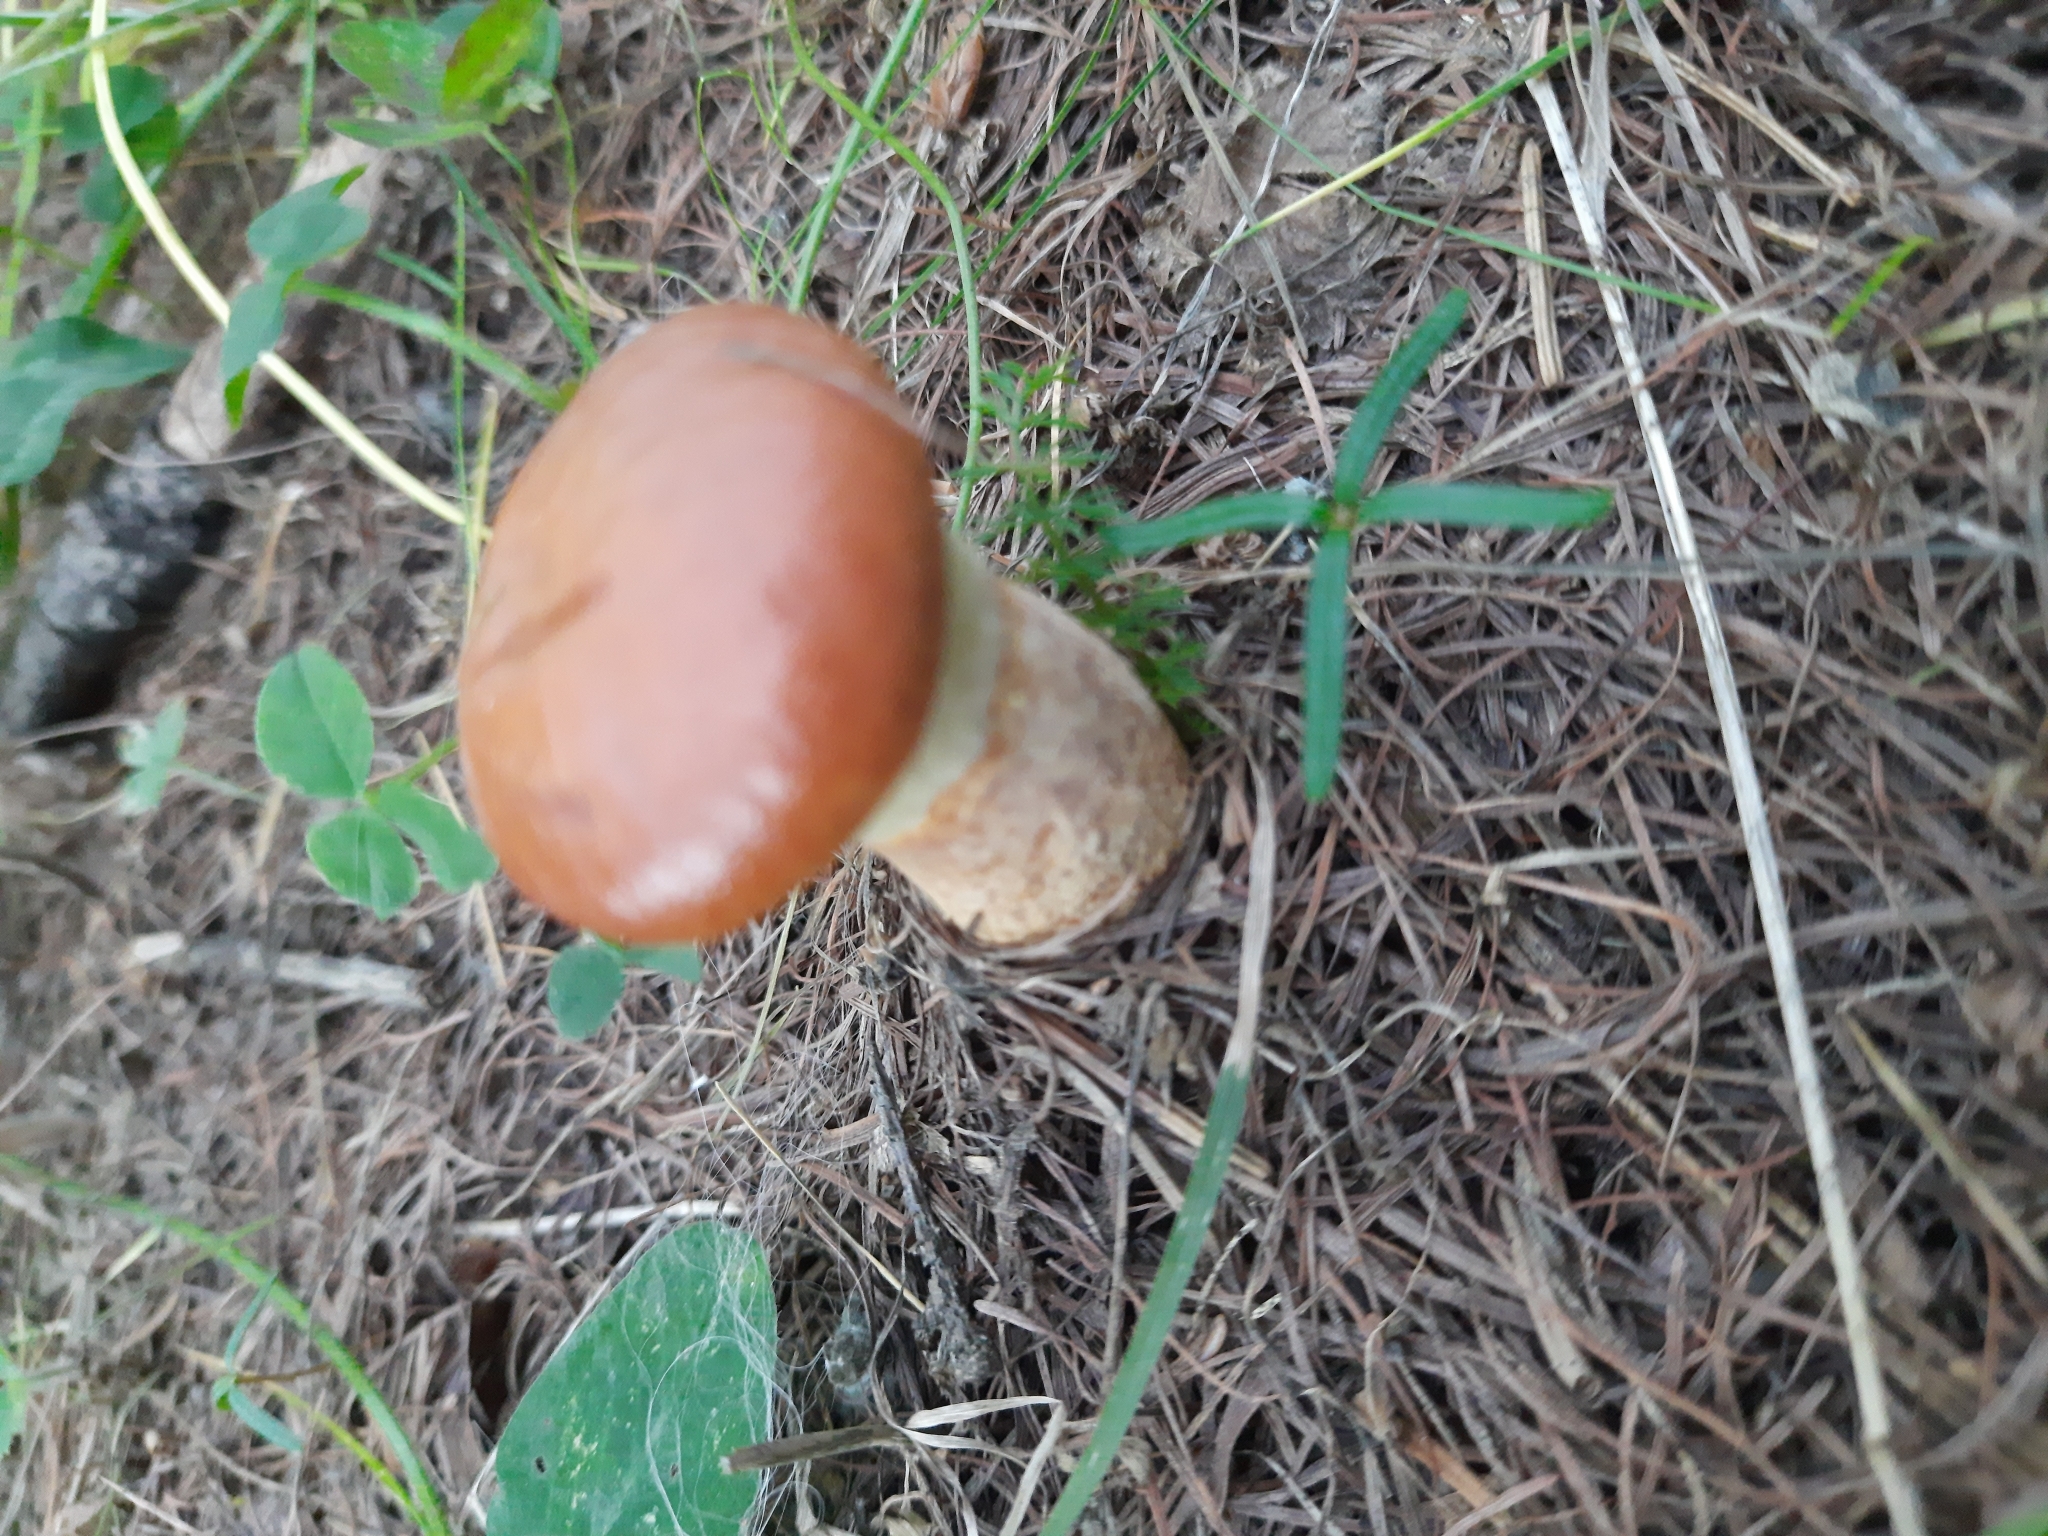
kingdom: Fungi
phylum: Basidiomycota
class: Agaricomycetes
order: Boletales
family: Suillaceae
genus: Suillus
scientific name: Suillus grevillei
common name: Larch bolete
